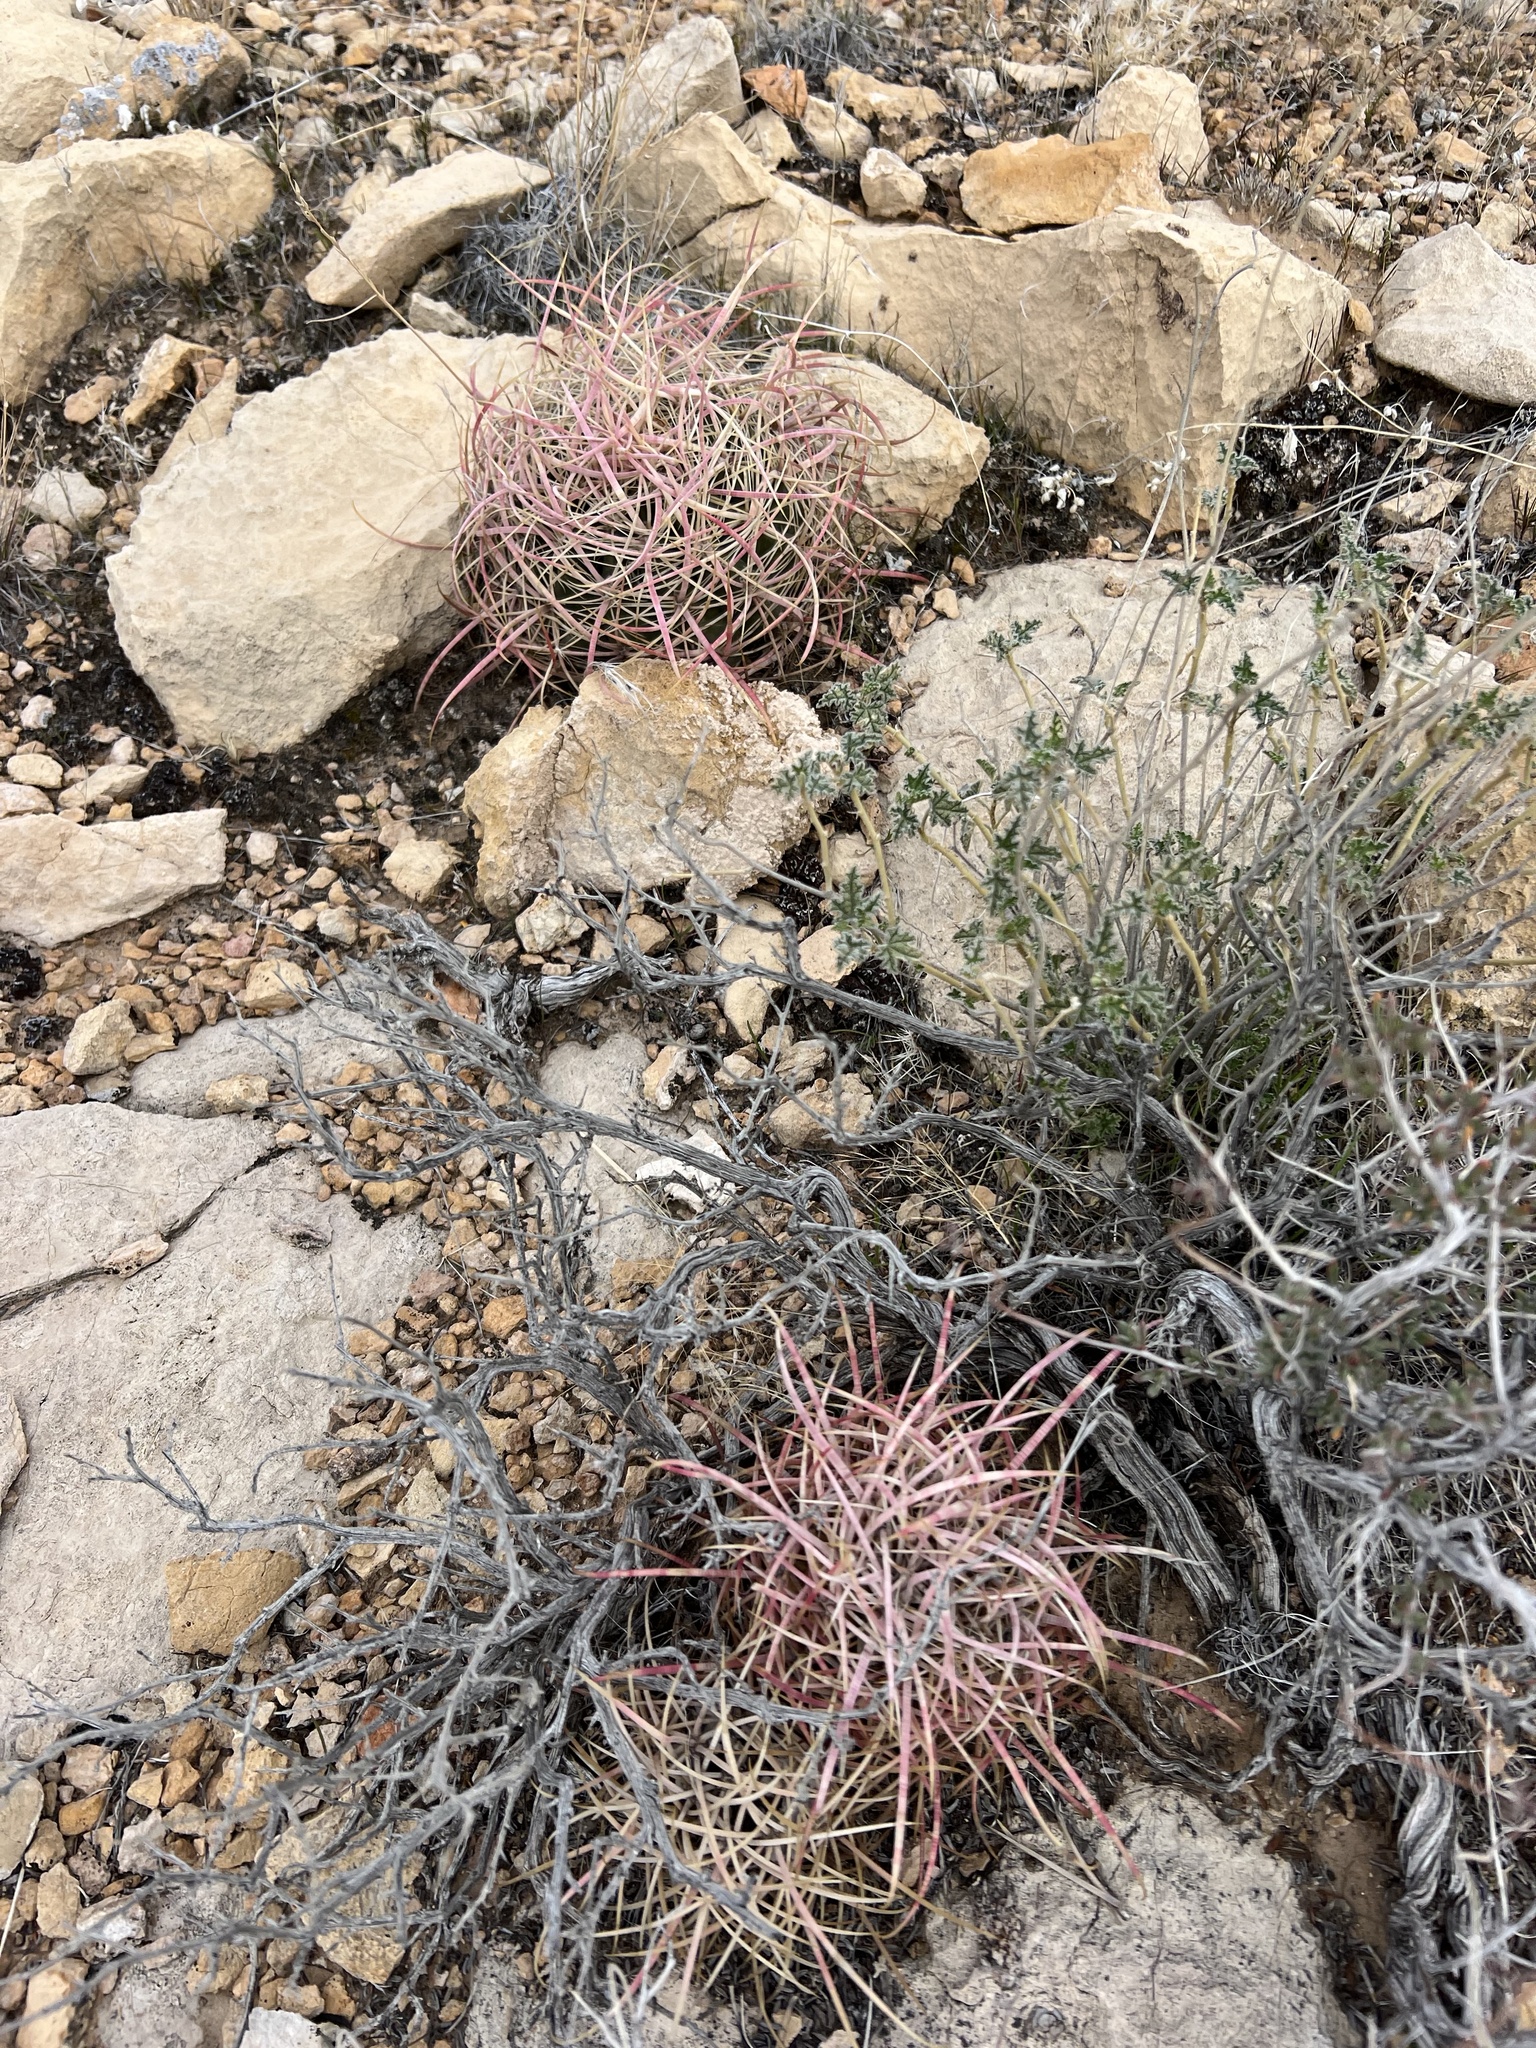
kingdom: Plantae
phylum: Tracheophyta
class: Magnoliopsida
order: Caryophyllales
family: Cactaceae
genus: Ferocactus
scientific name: Ferocactus cylindraceus
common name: California barrel cactus
